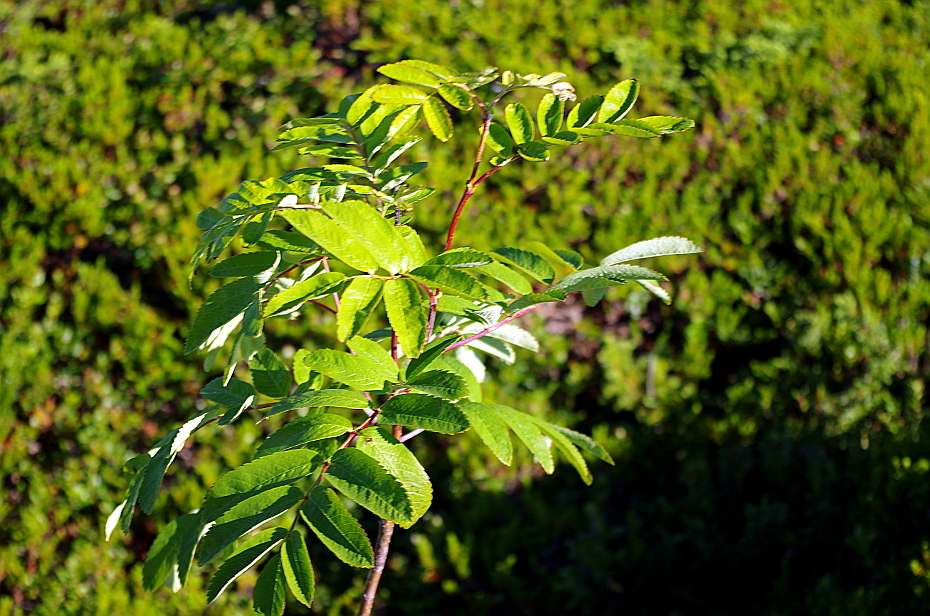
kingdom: Plantae
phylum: Tracheophyta
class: Magnoliopsida
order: Rosales
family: Rosaceae
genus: Sorbus
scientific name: Sorbus aucuparia
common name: Rowan
